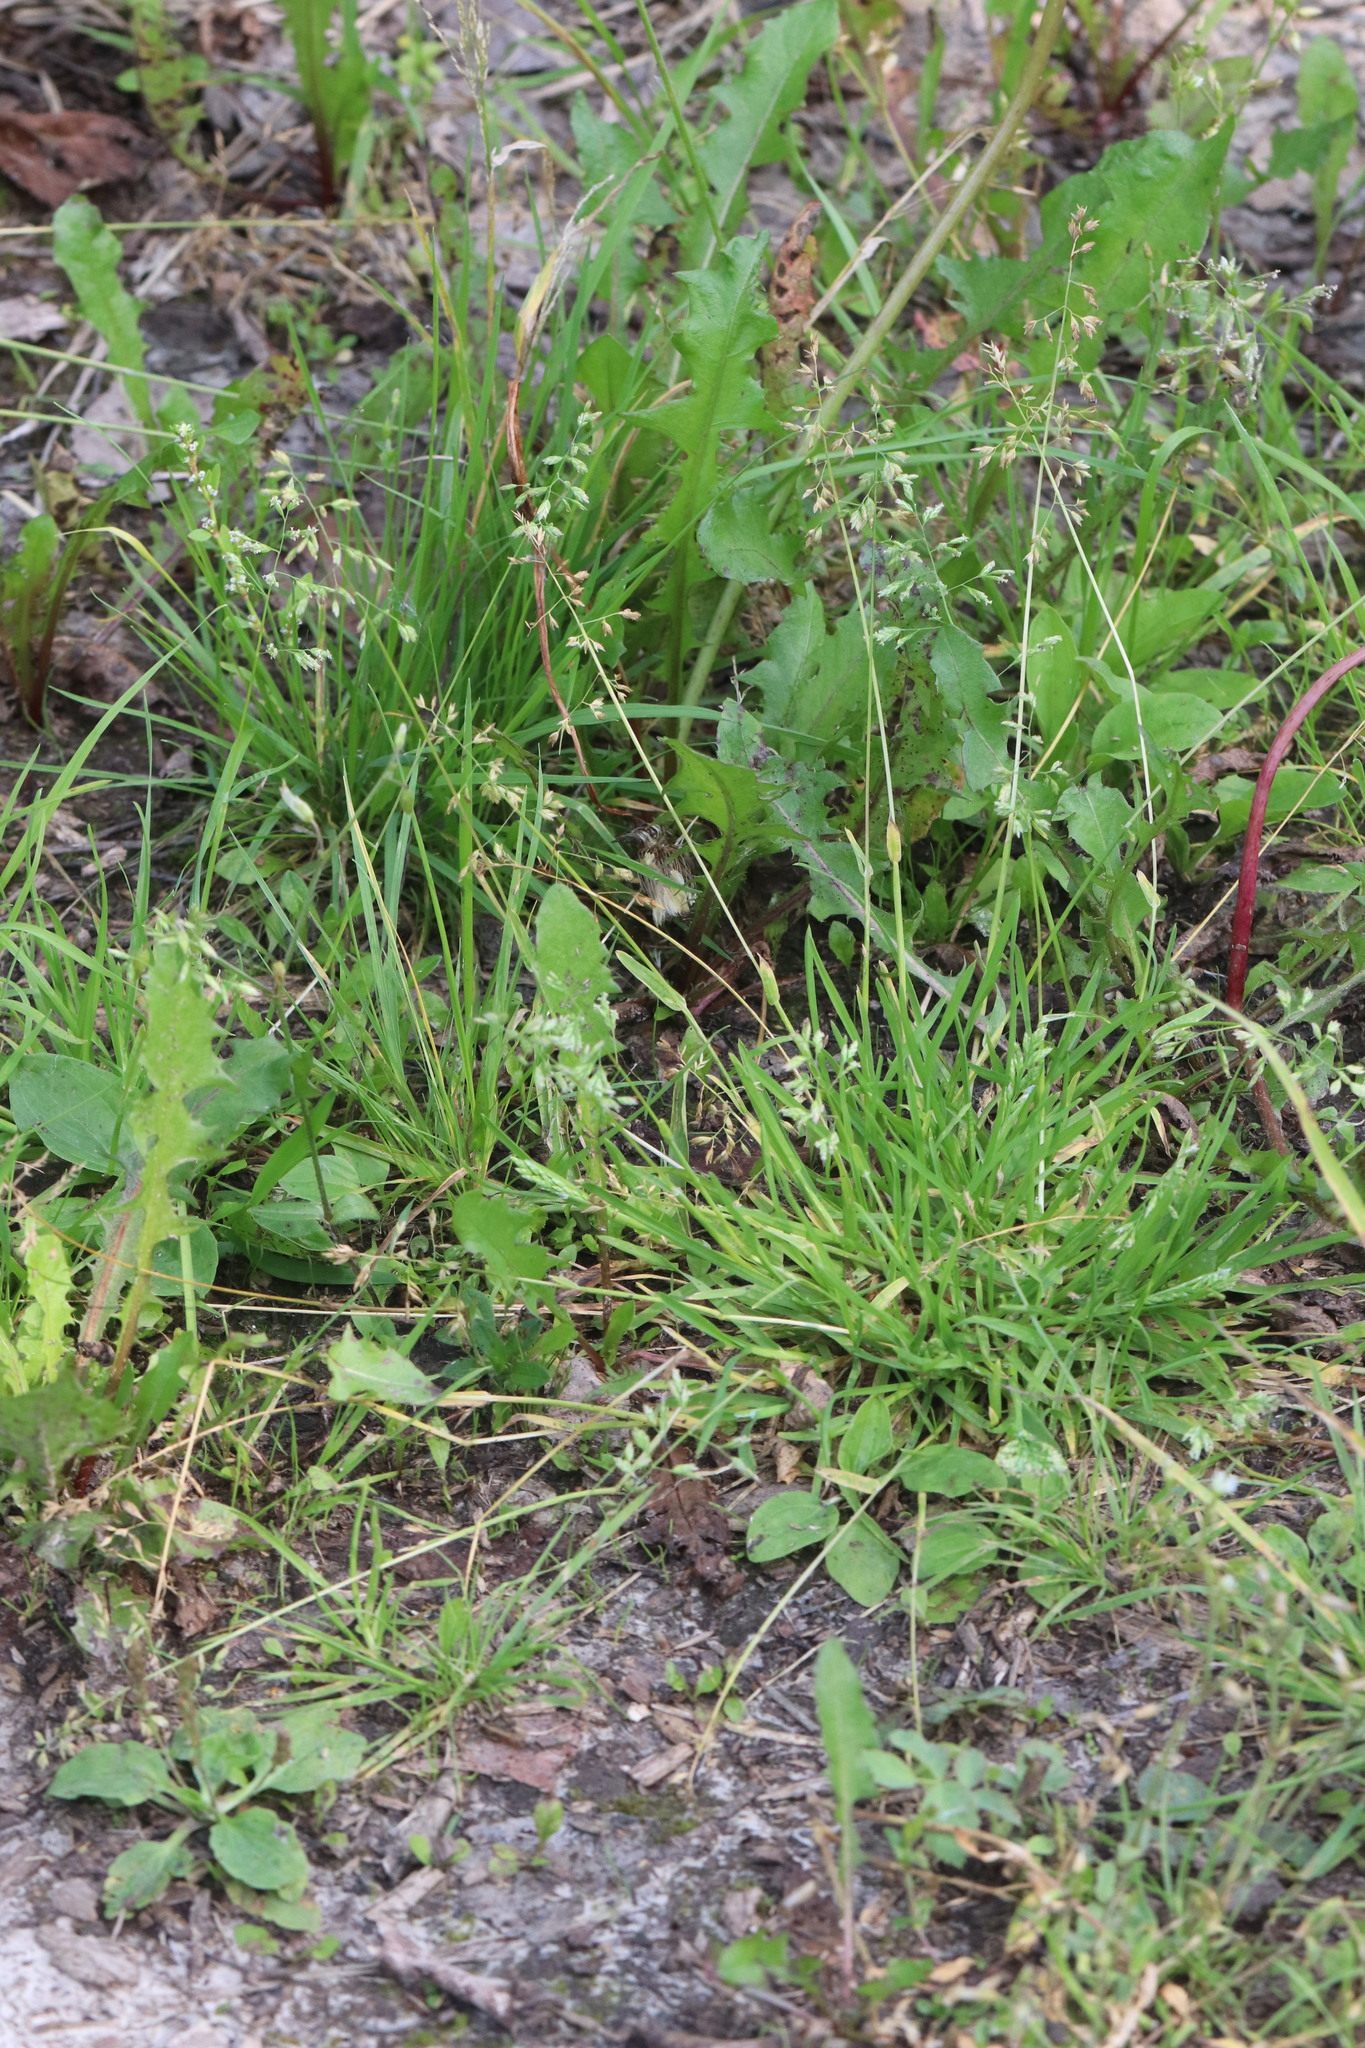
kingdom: Plantae
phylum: Tracheophyta
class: Liliopsida
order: Poales
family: Poaceae
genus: Poa
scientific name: Poa annua
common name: Annual bluegrass
